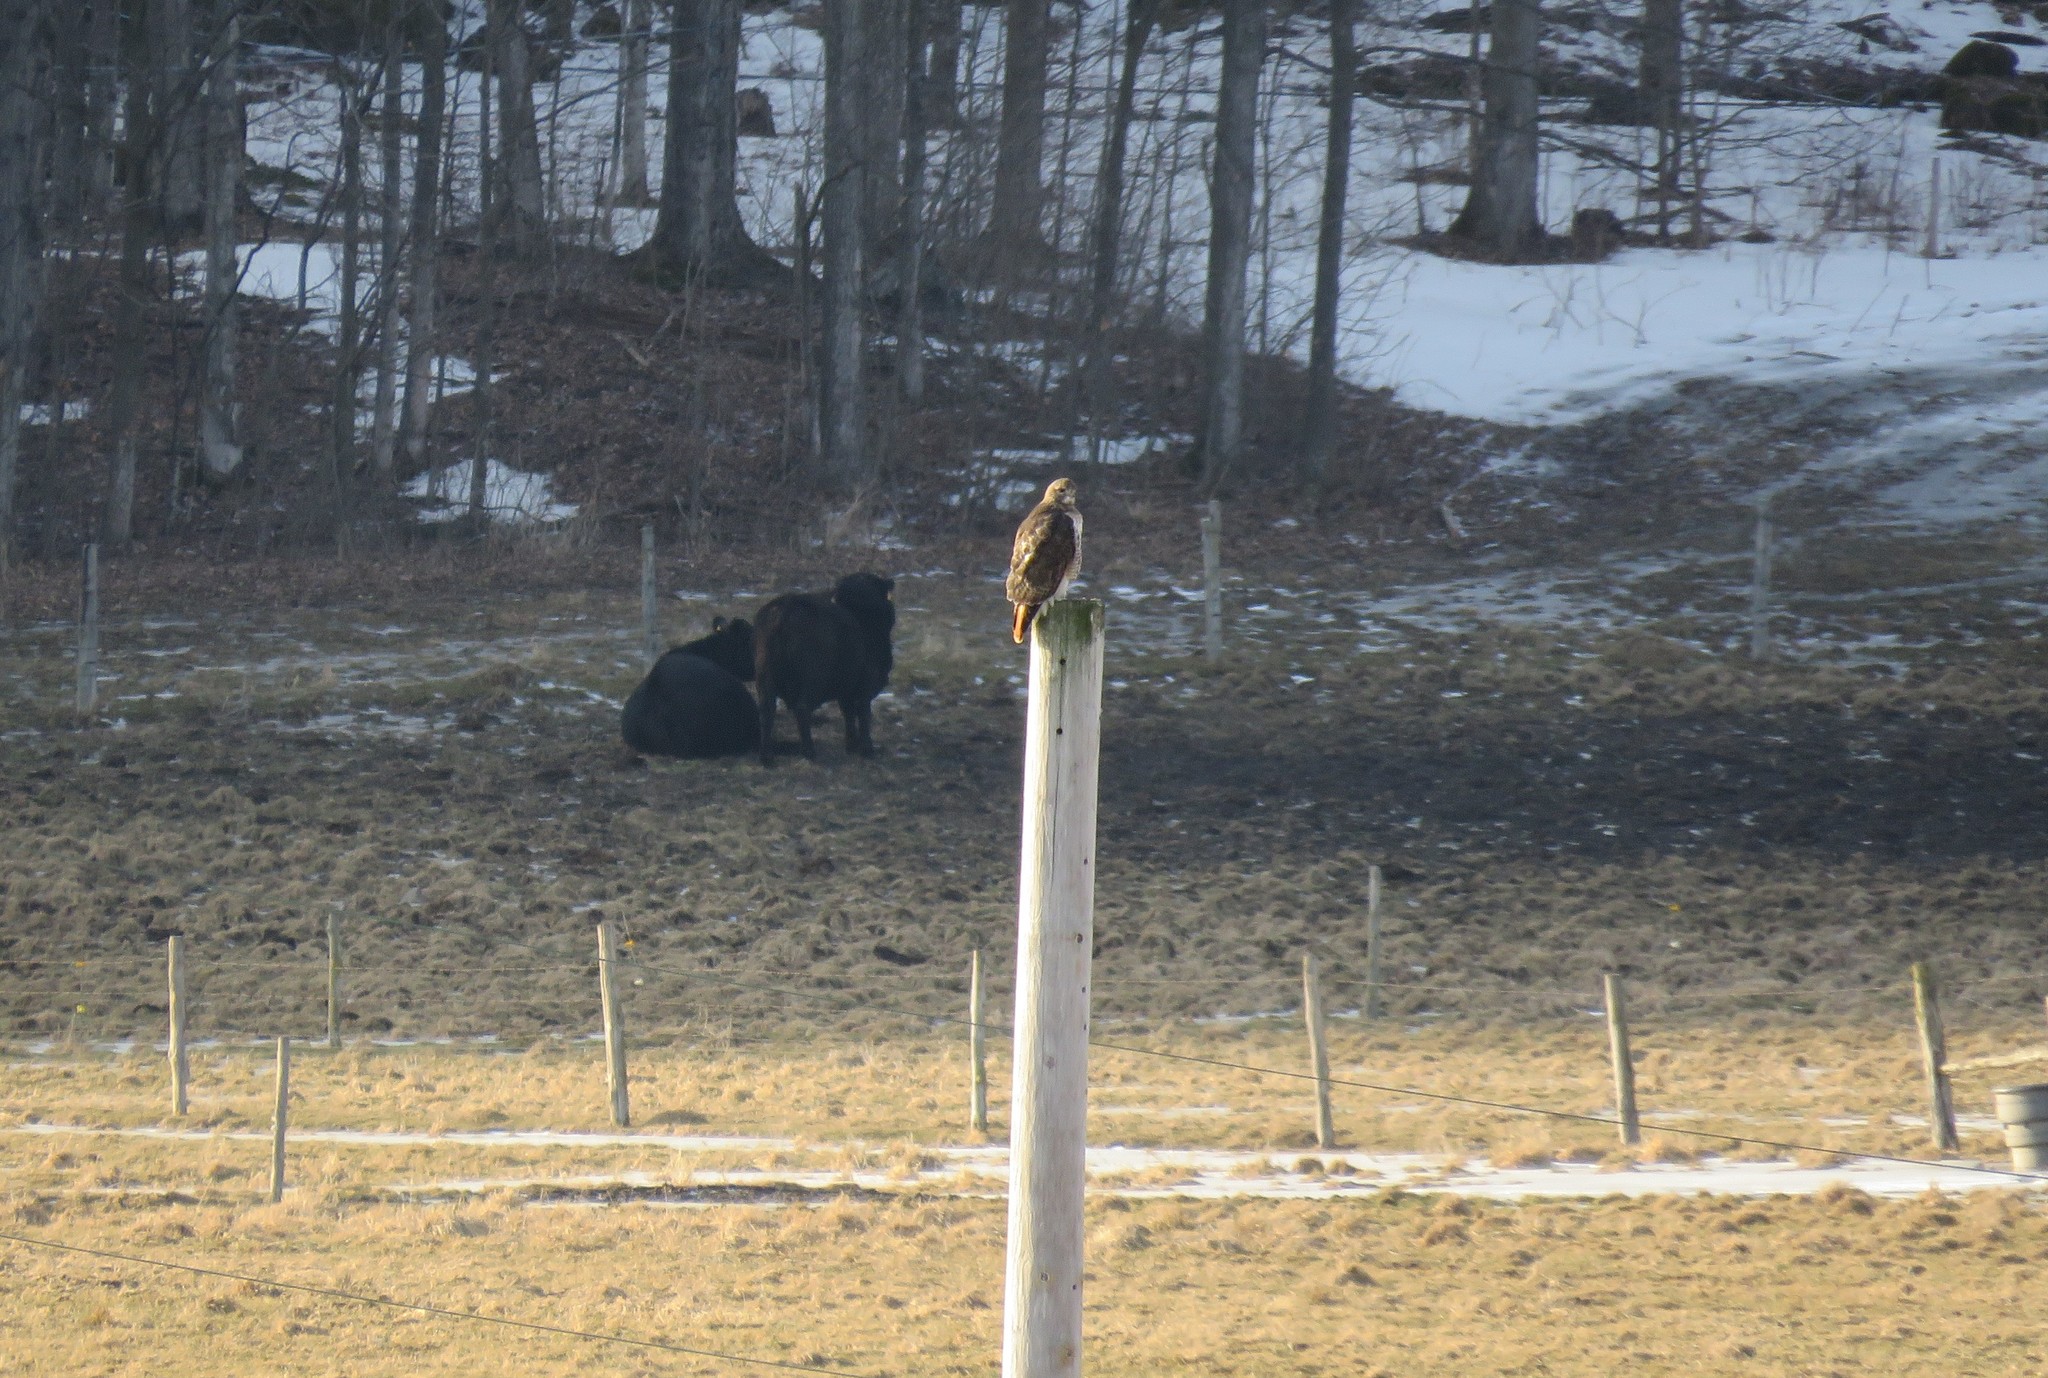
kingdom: Animalia
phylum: Chordata
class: Aves
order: Accipitriformes
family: Accipitridae
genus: Buteo
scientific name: Buteo jamaicensis
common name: Red-tailed hawk
